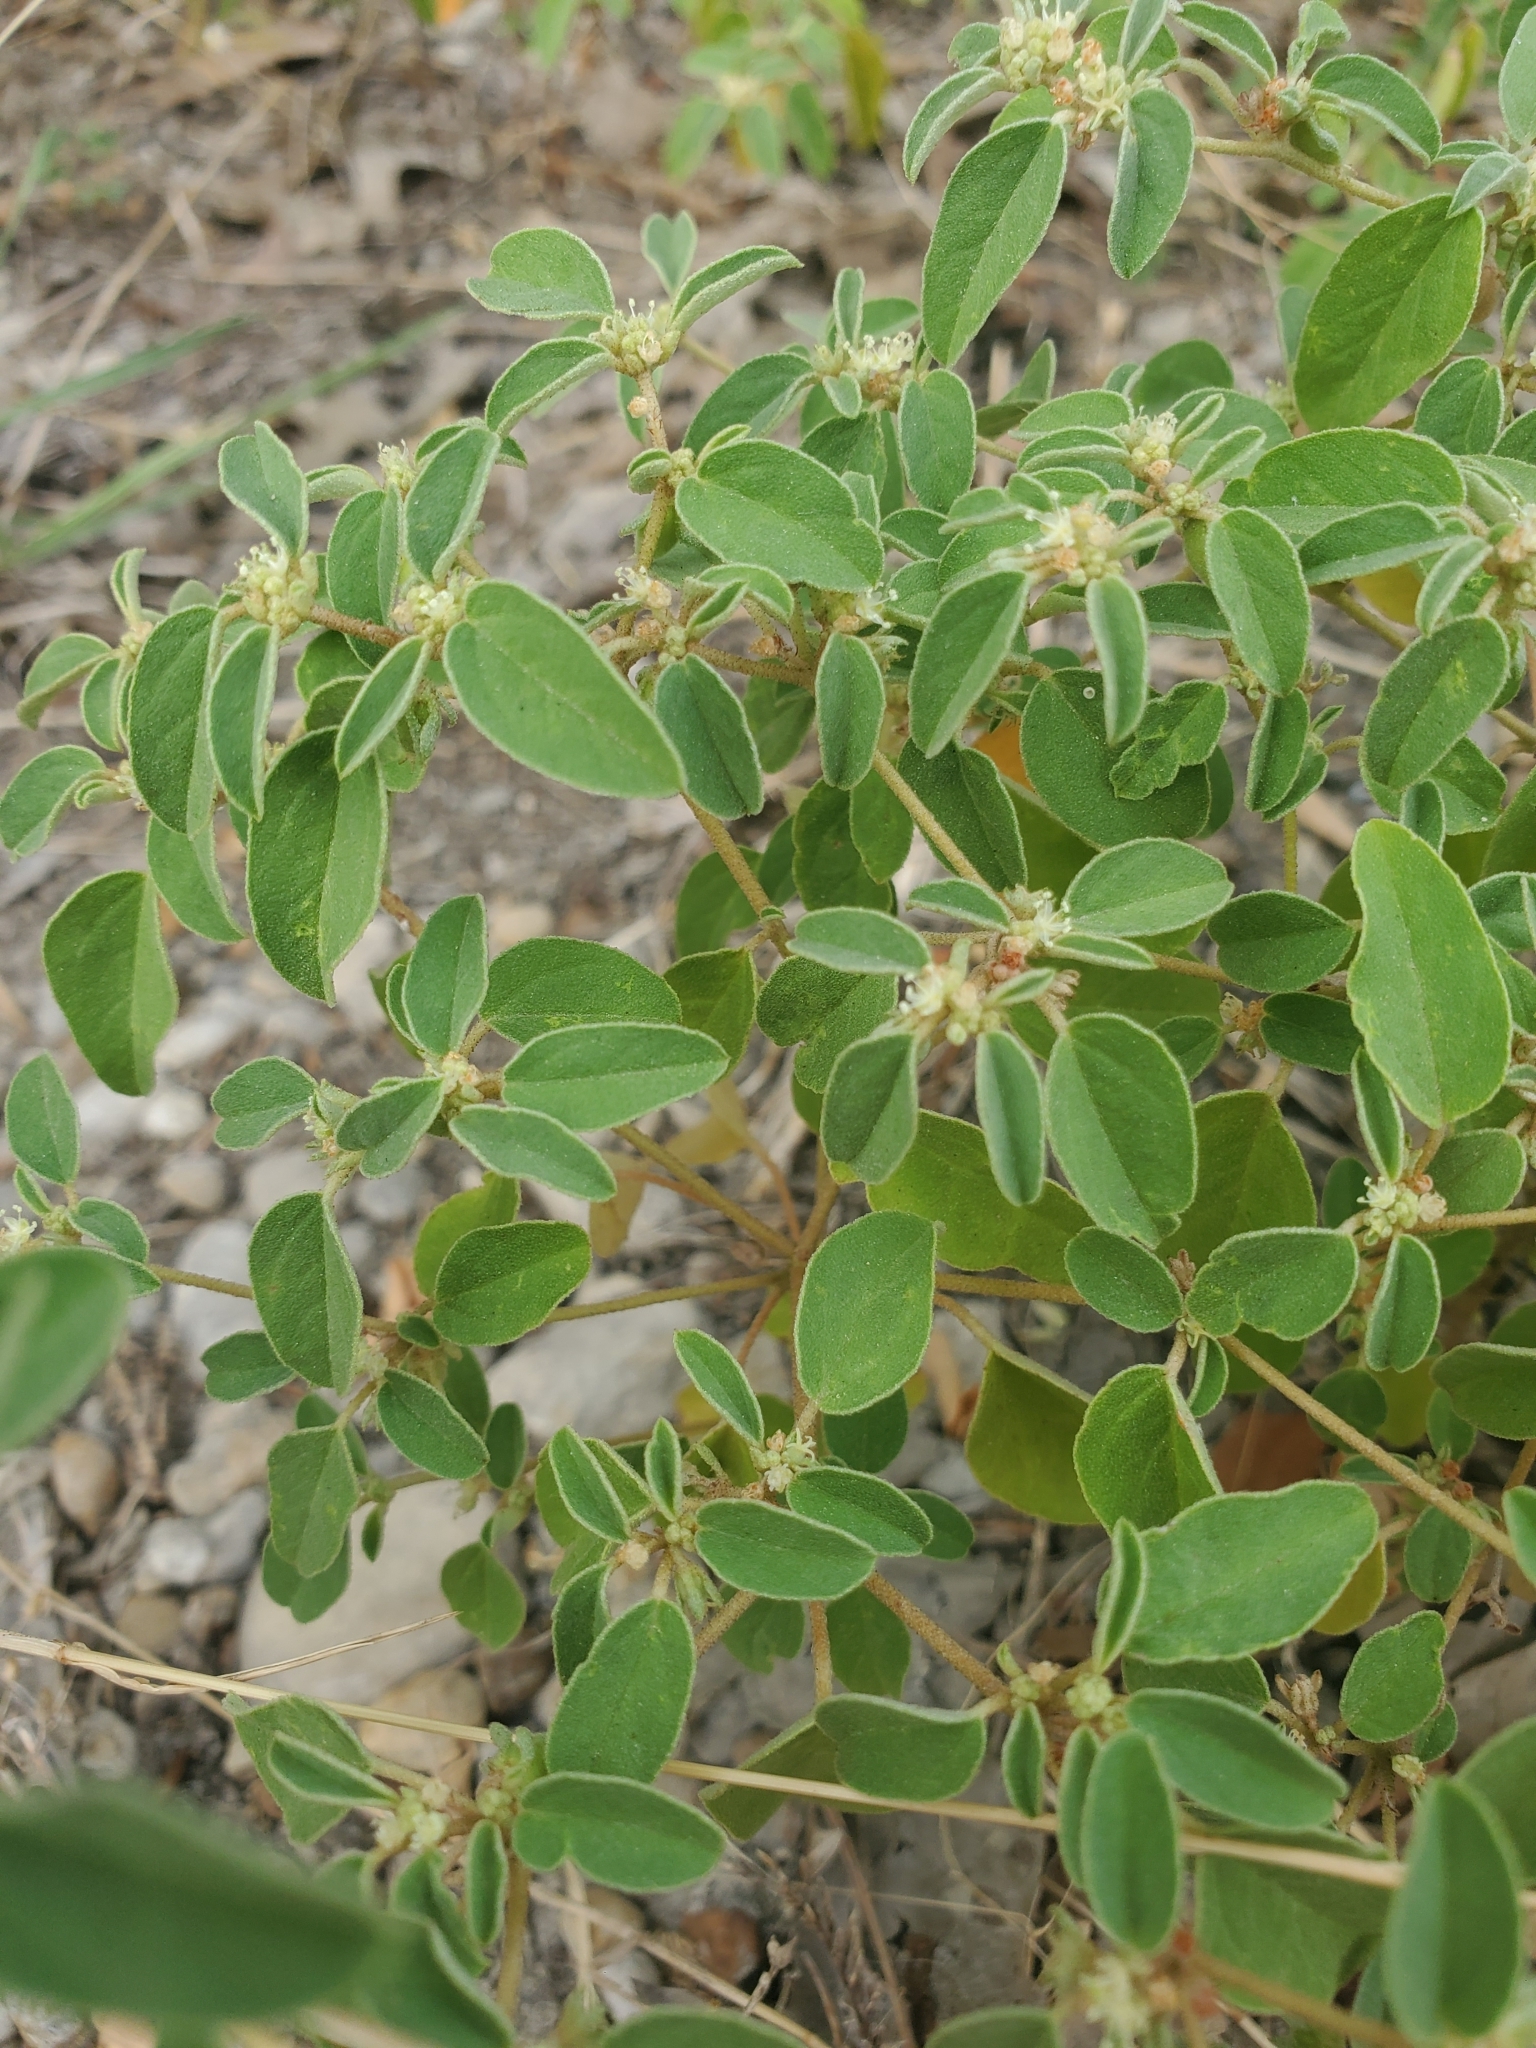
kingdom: Plantae
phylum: Tracheophyta
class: Magnoliopsida
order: Malpighiales
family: Euphorbiaceae
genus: Croton
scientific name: Croton monanthogynus
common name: One-seed croton
